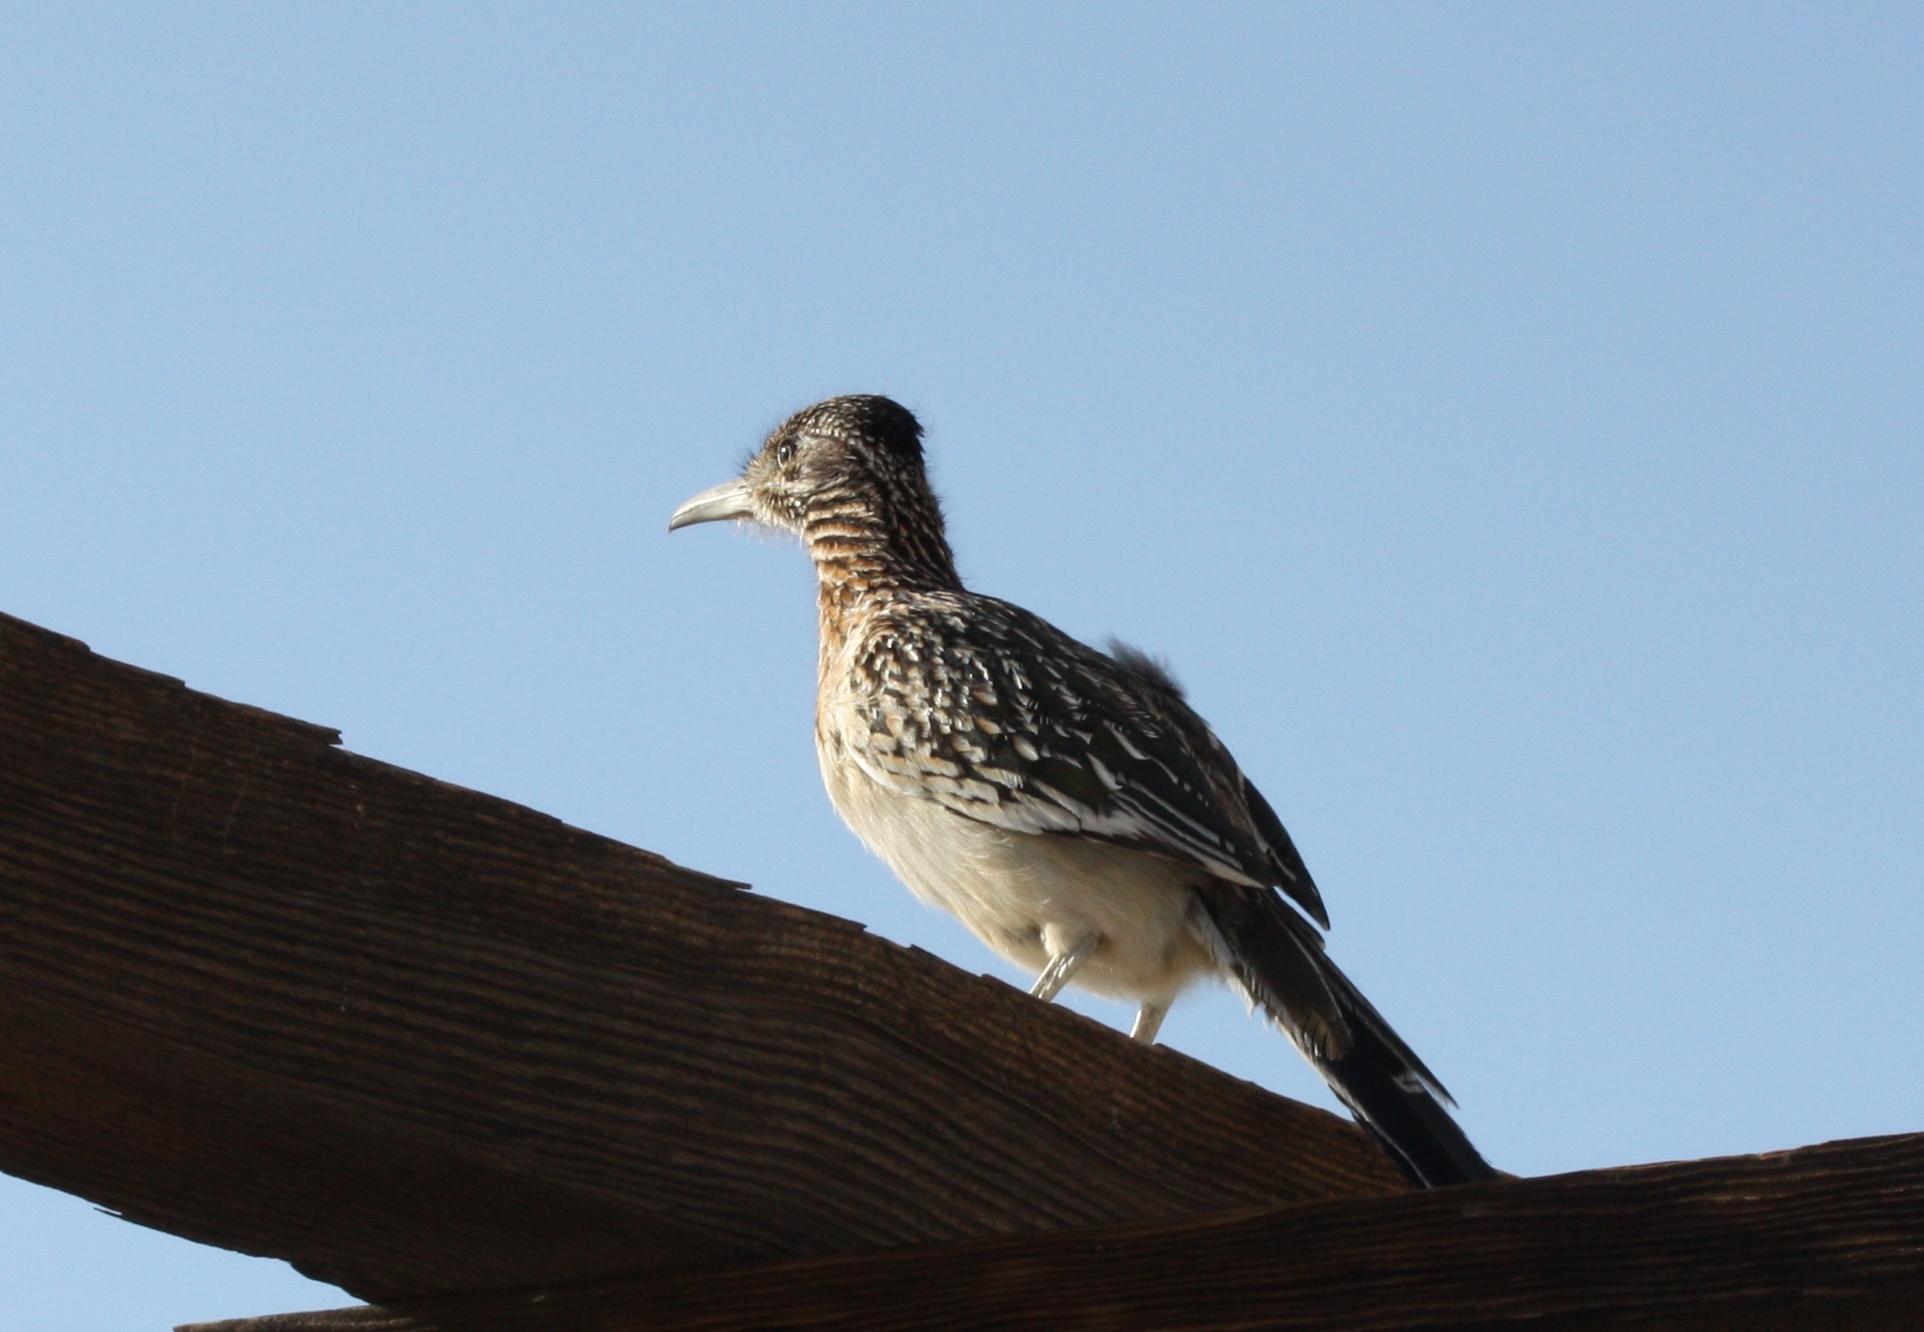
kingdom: Animalia
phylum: Chordata
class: Aves
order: Cuculiformes
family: Cuculidae
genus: Geococcyx
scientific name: Geococcyx californianus
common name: Greater roadrunner
